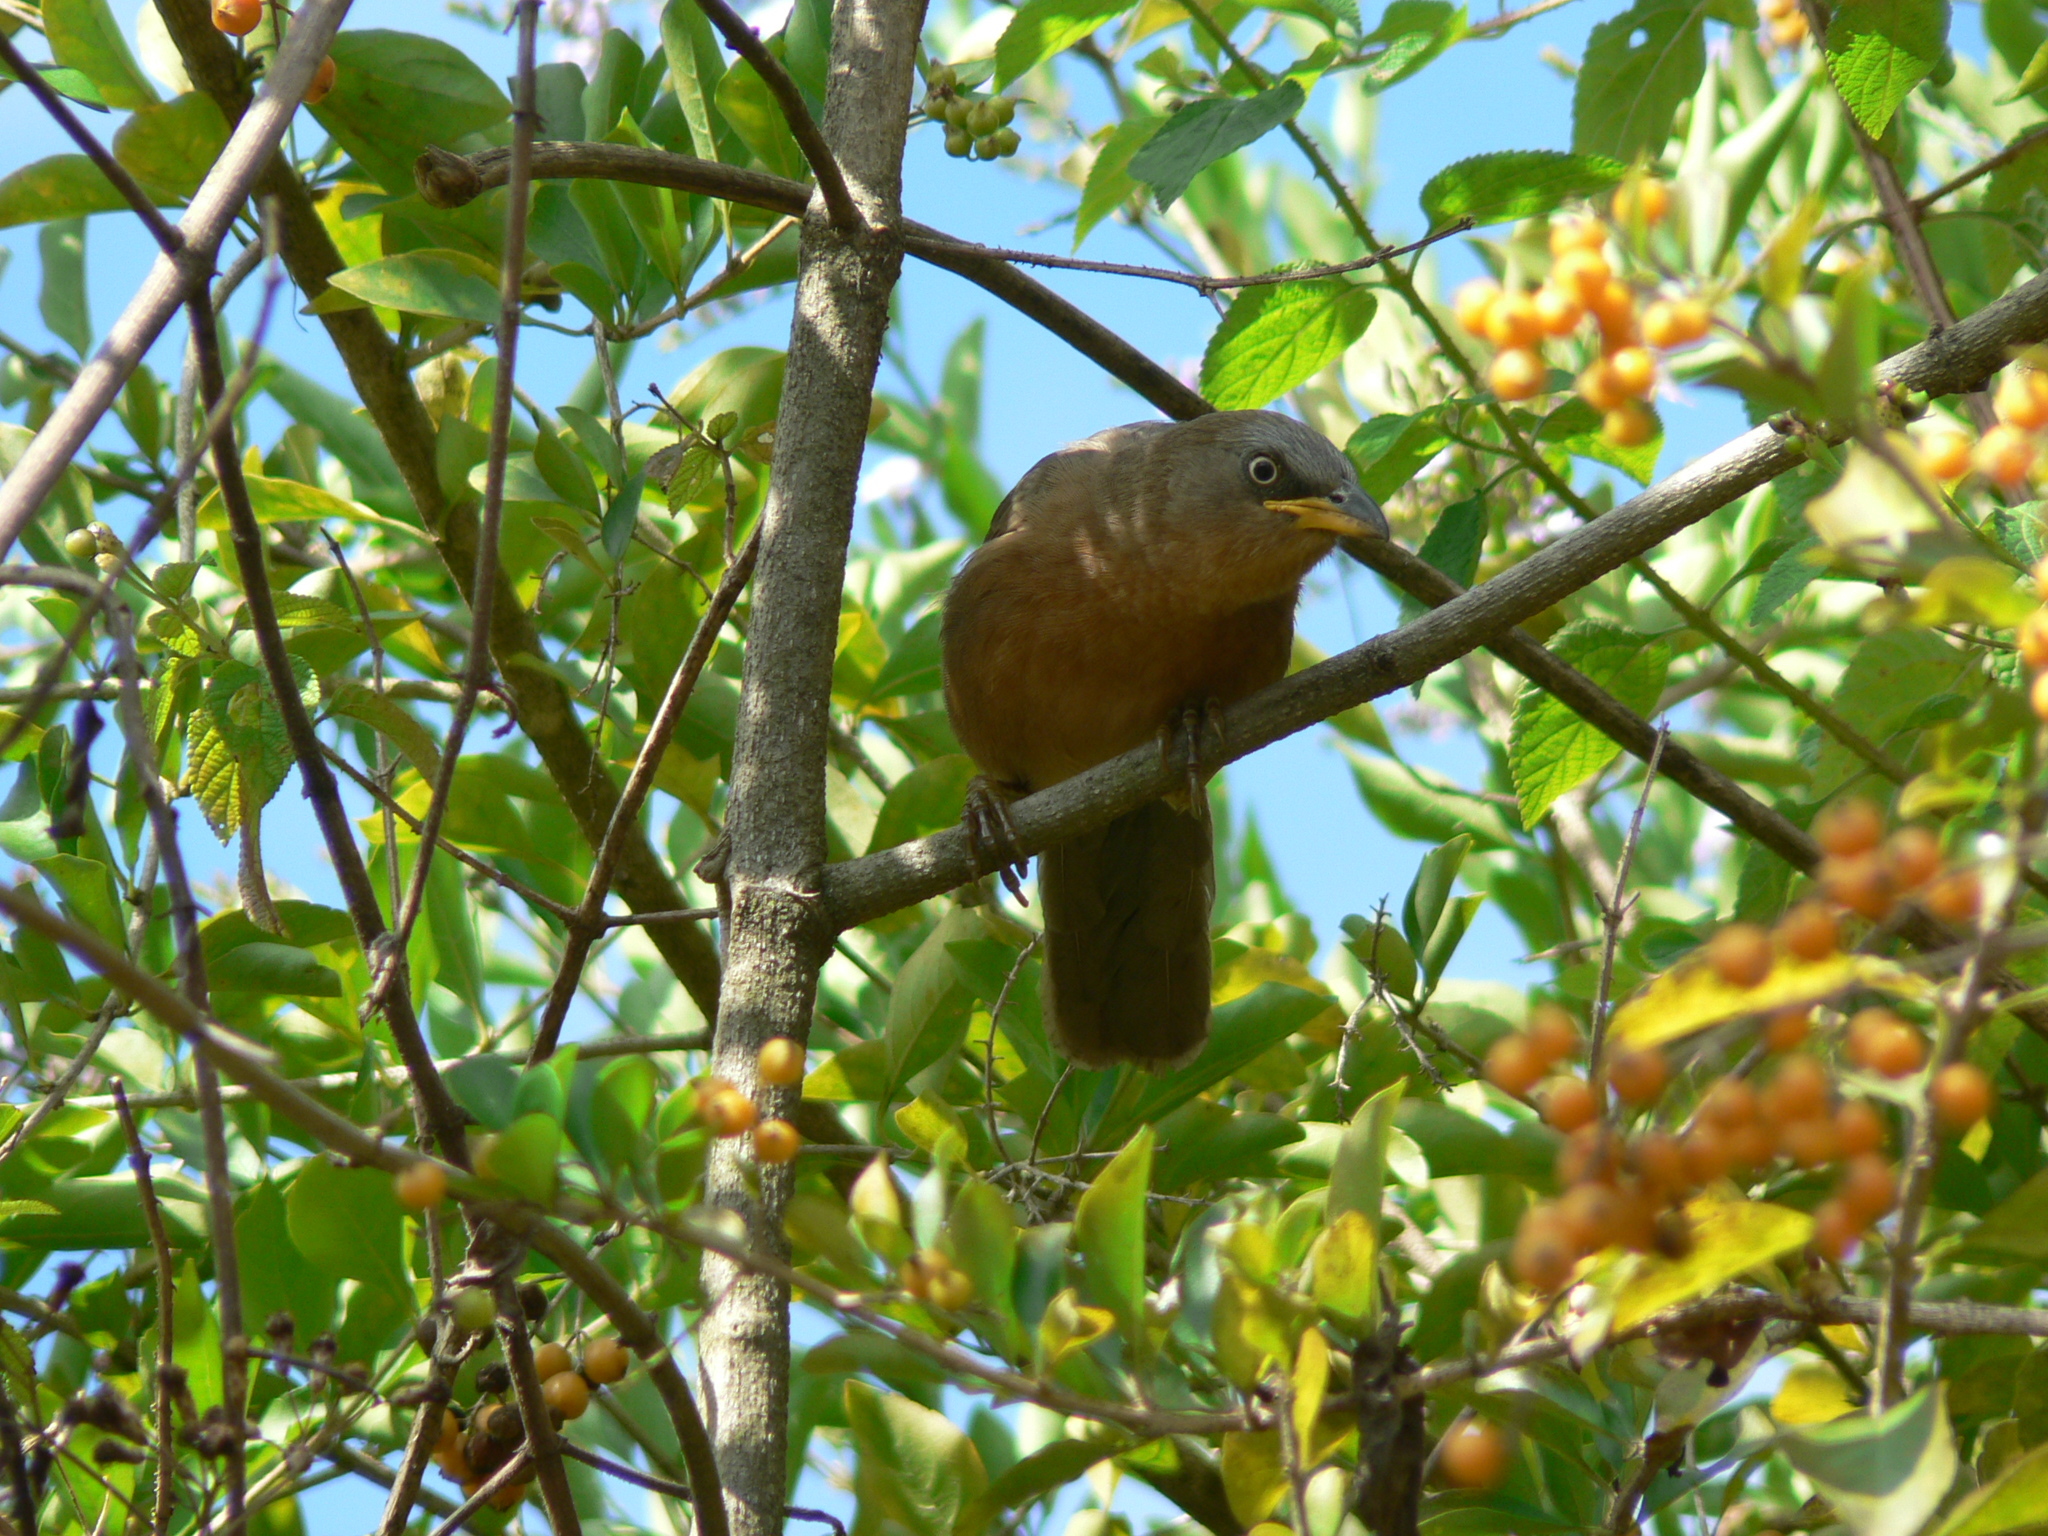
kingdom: Animalia
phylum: Chordata
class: Aves
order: Passeriformes
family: Leiothrichidae
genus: Turdoides
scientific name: Turdoides subrufa
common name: Rufous babbler
